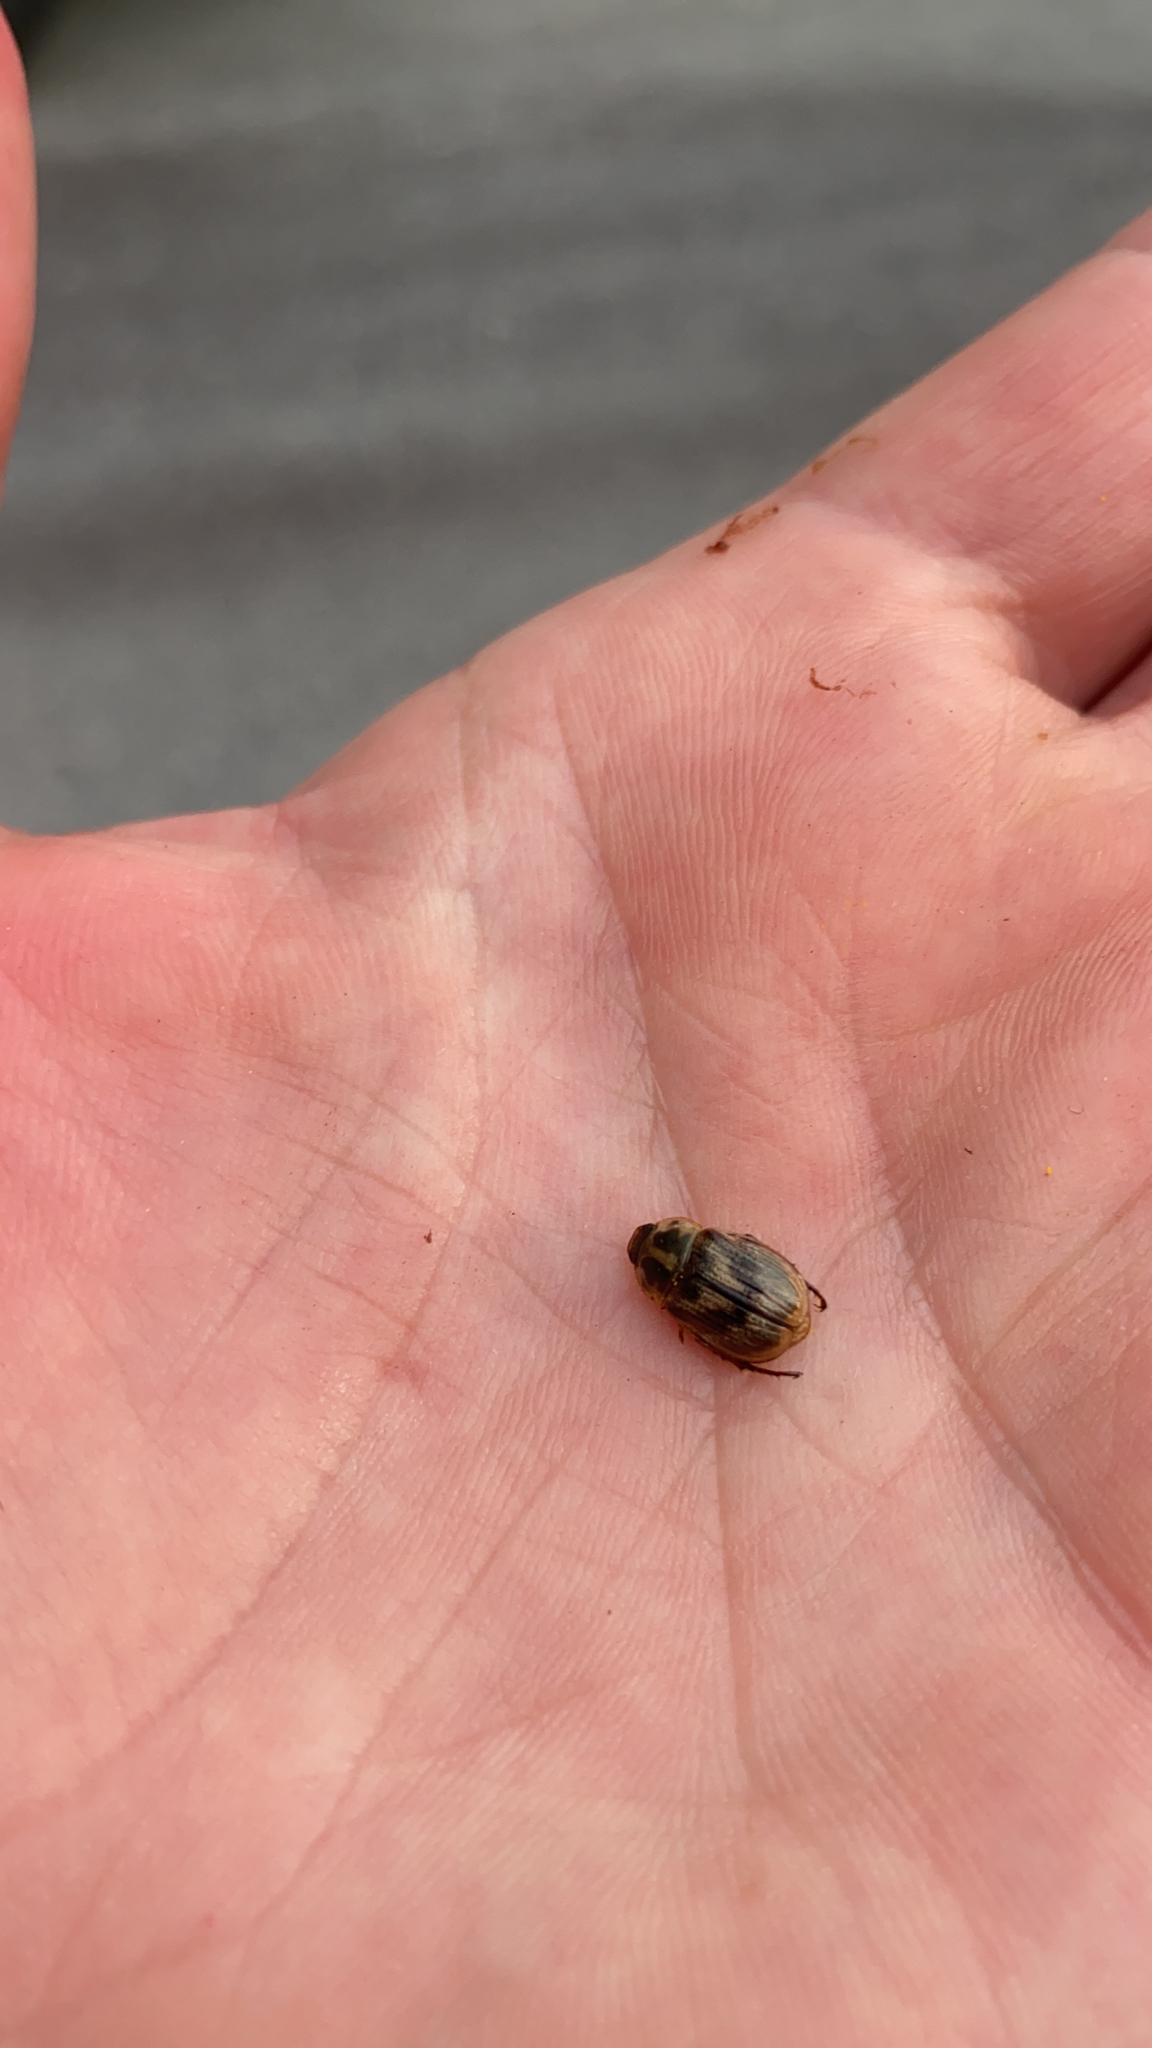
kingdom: Animalia
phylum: Arthropoda
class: Insecta
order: Coleoptera
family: Scarabaeidae
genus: Exomala
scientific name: Exomala orientalis
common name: Oriental beetle
